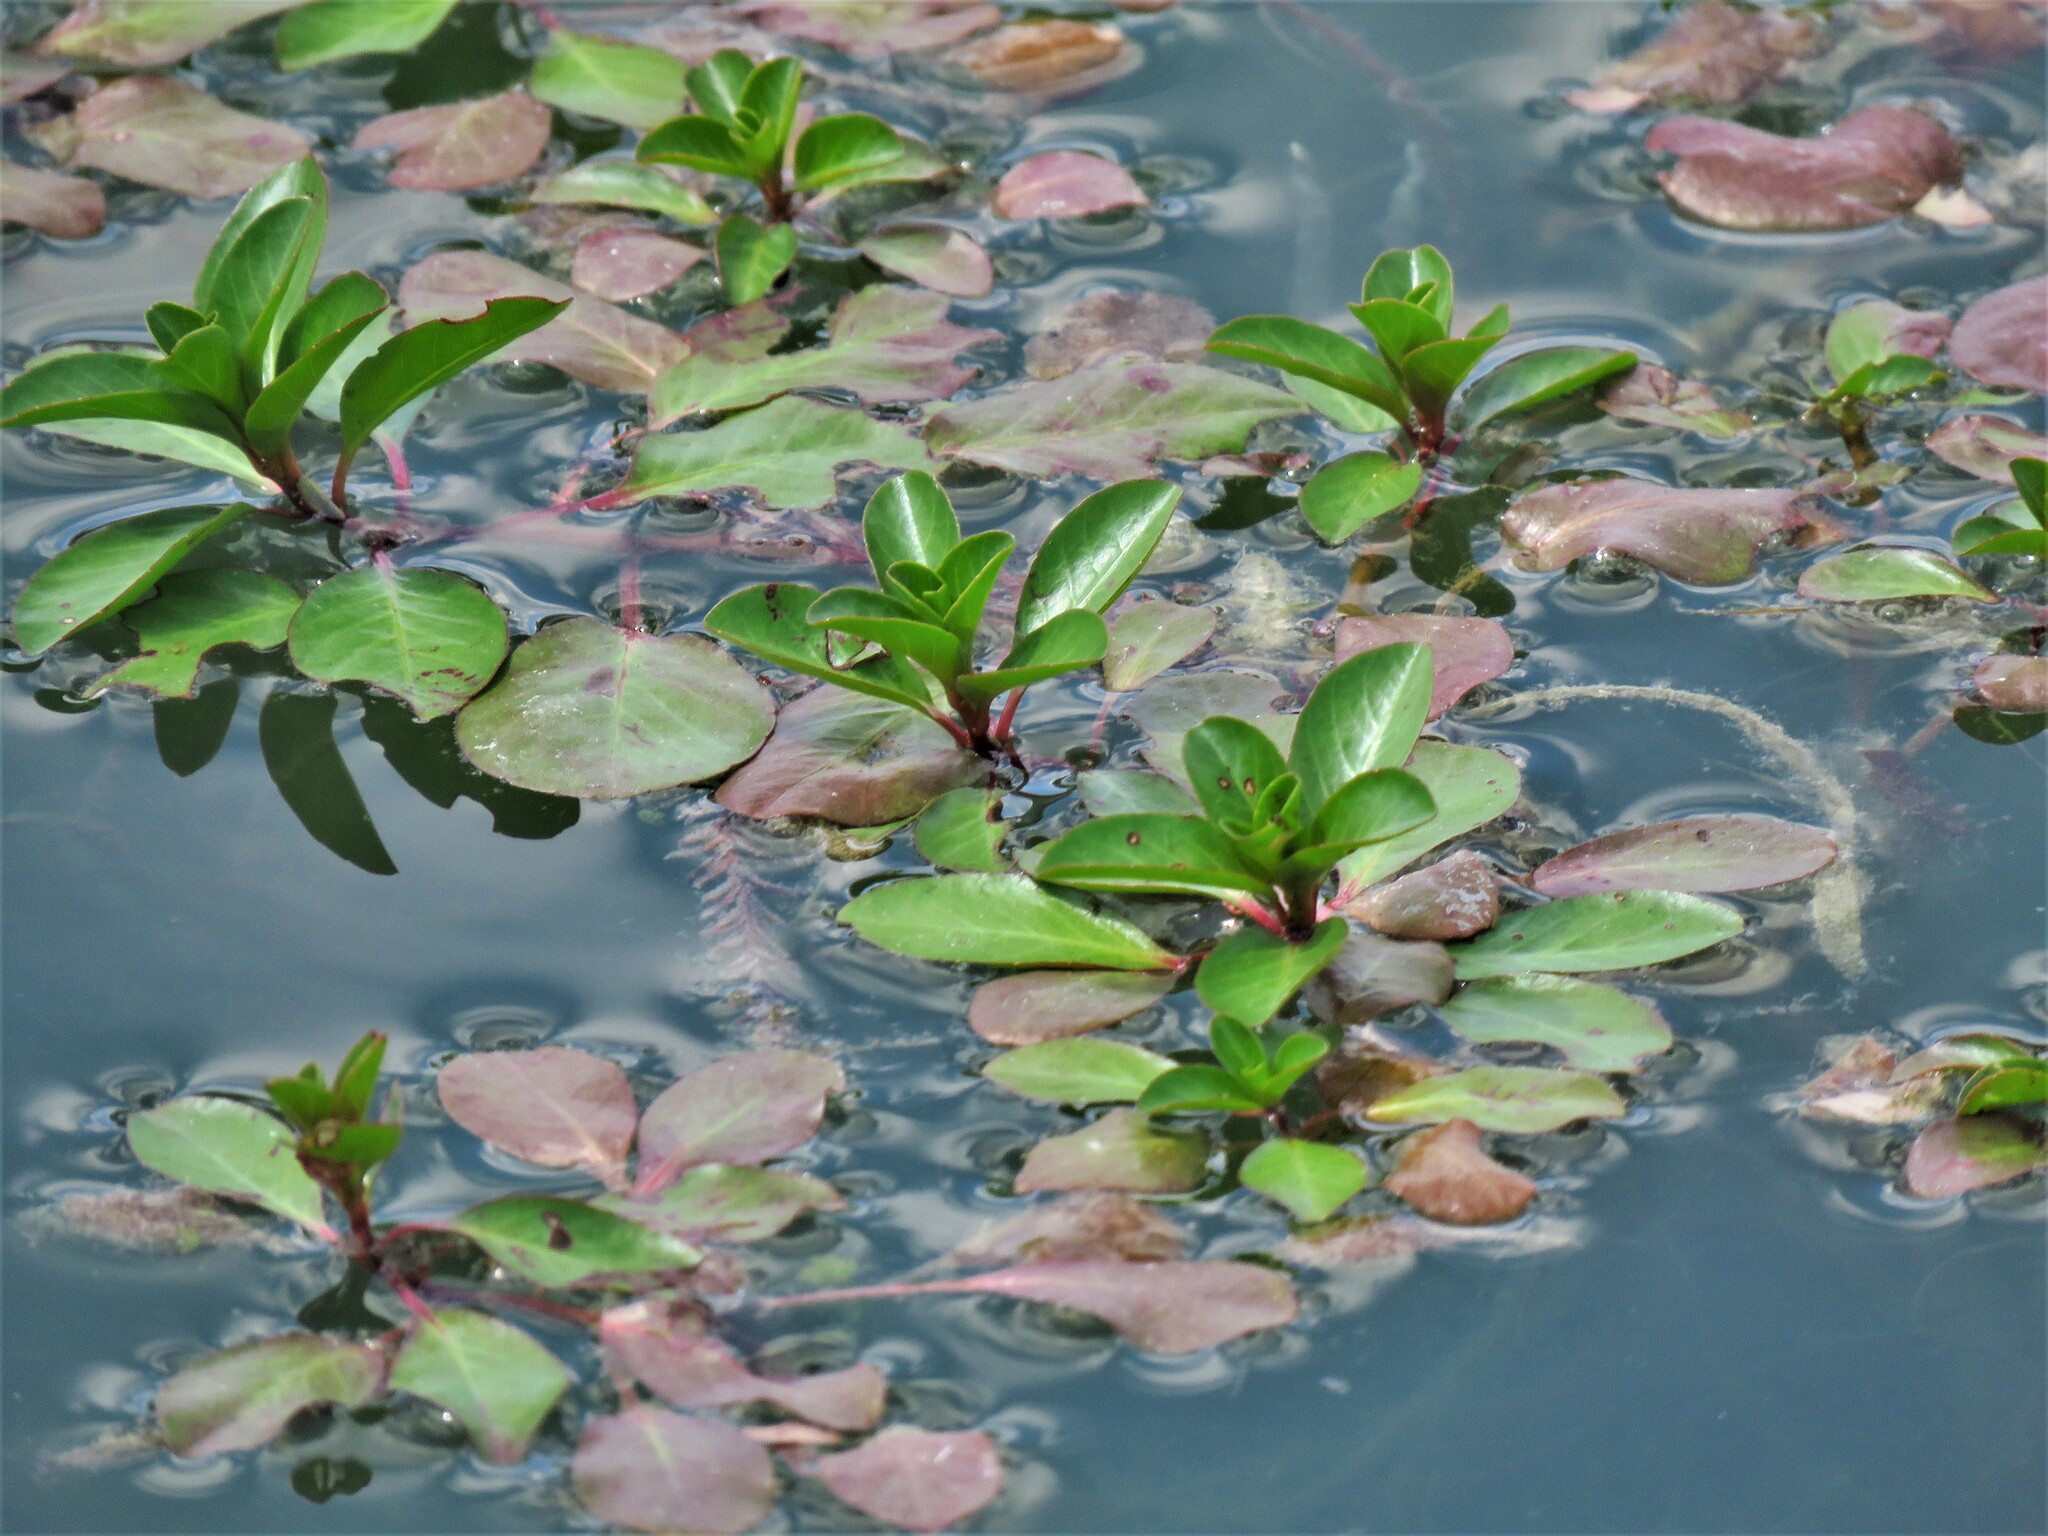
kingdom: Plantae
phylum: Tracheophyta
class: Magnoliopsida
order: Myrtales
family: Onagraceae
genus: Ludwigia
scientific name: Ludwigia peploides
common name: Floating primrose-willow
